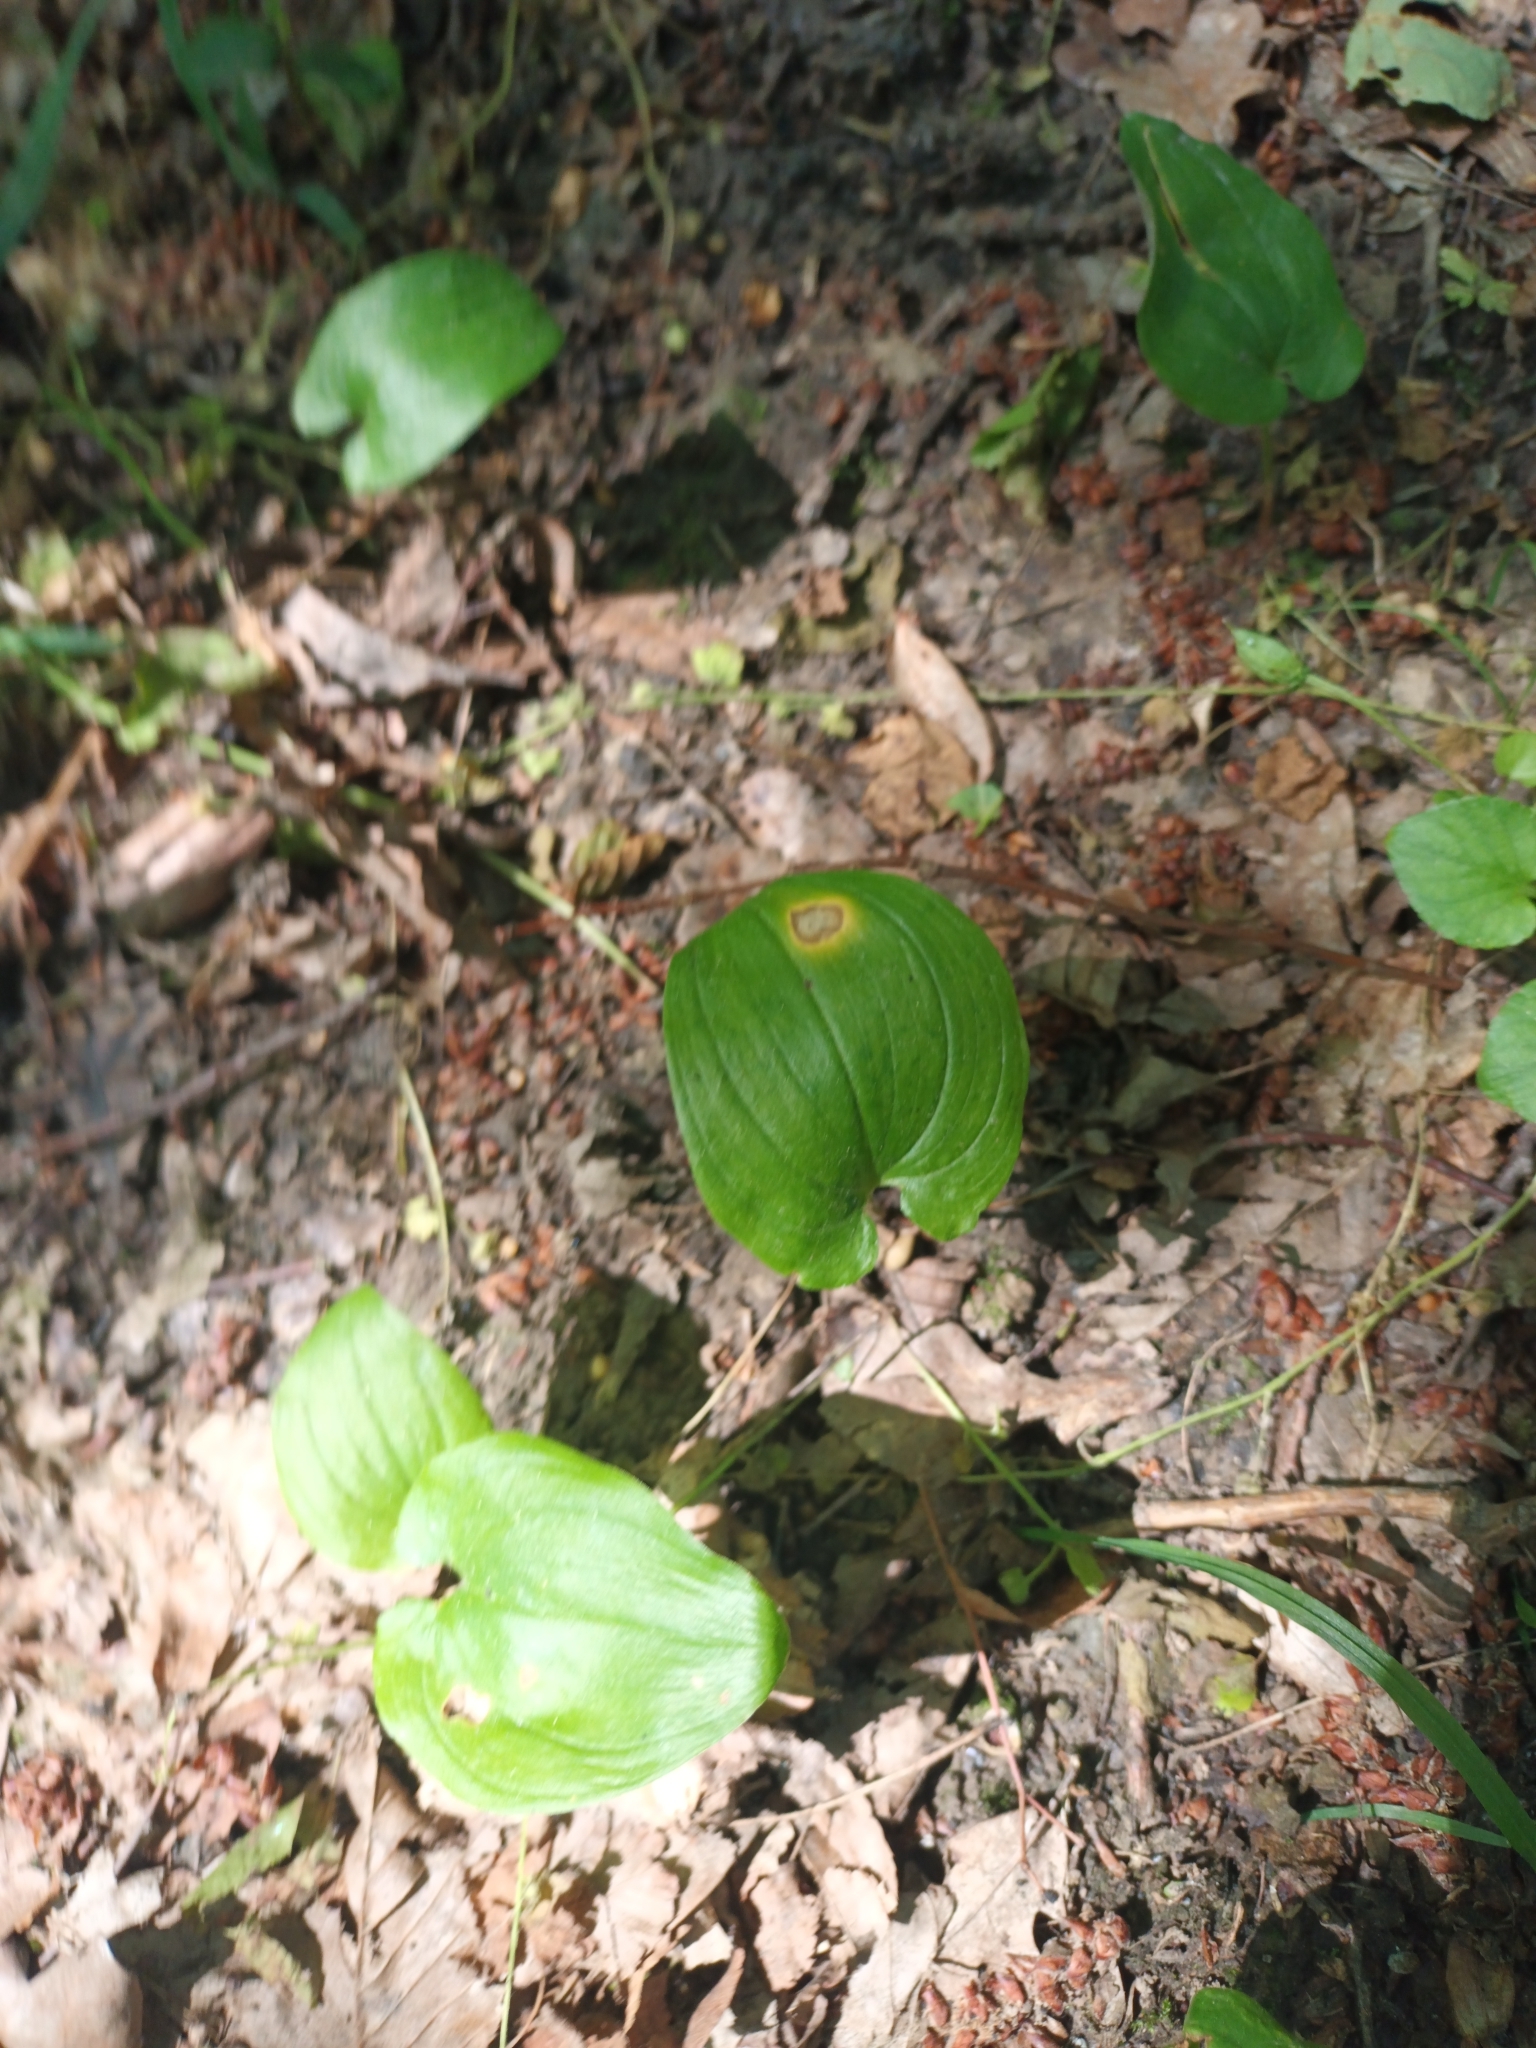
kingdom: Plantae
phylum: Tracheophyta
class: Liliopsida
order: Asparagales
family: Asparagaceae
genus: Maianthemum
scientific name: Maianthemum bifolium
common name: May lily
